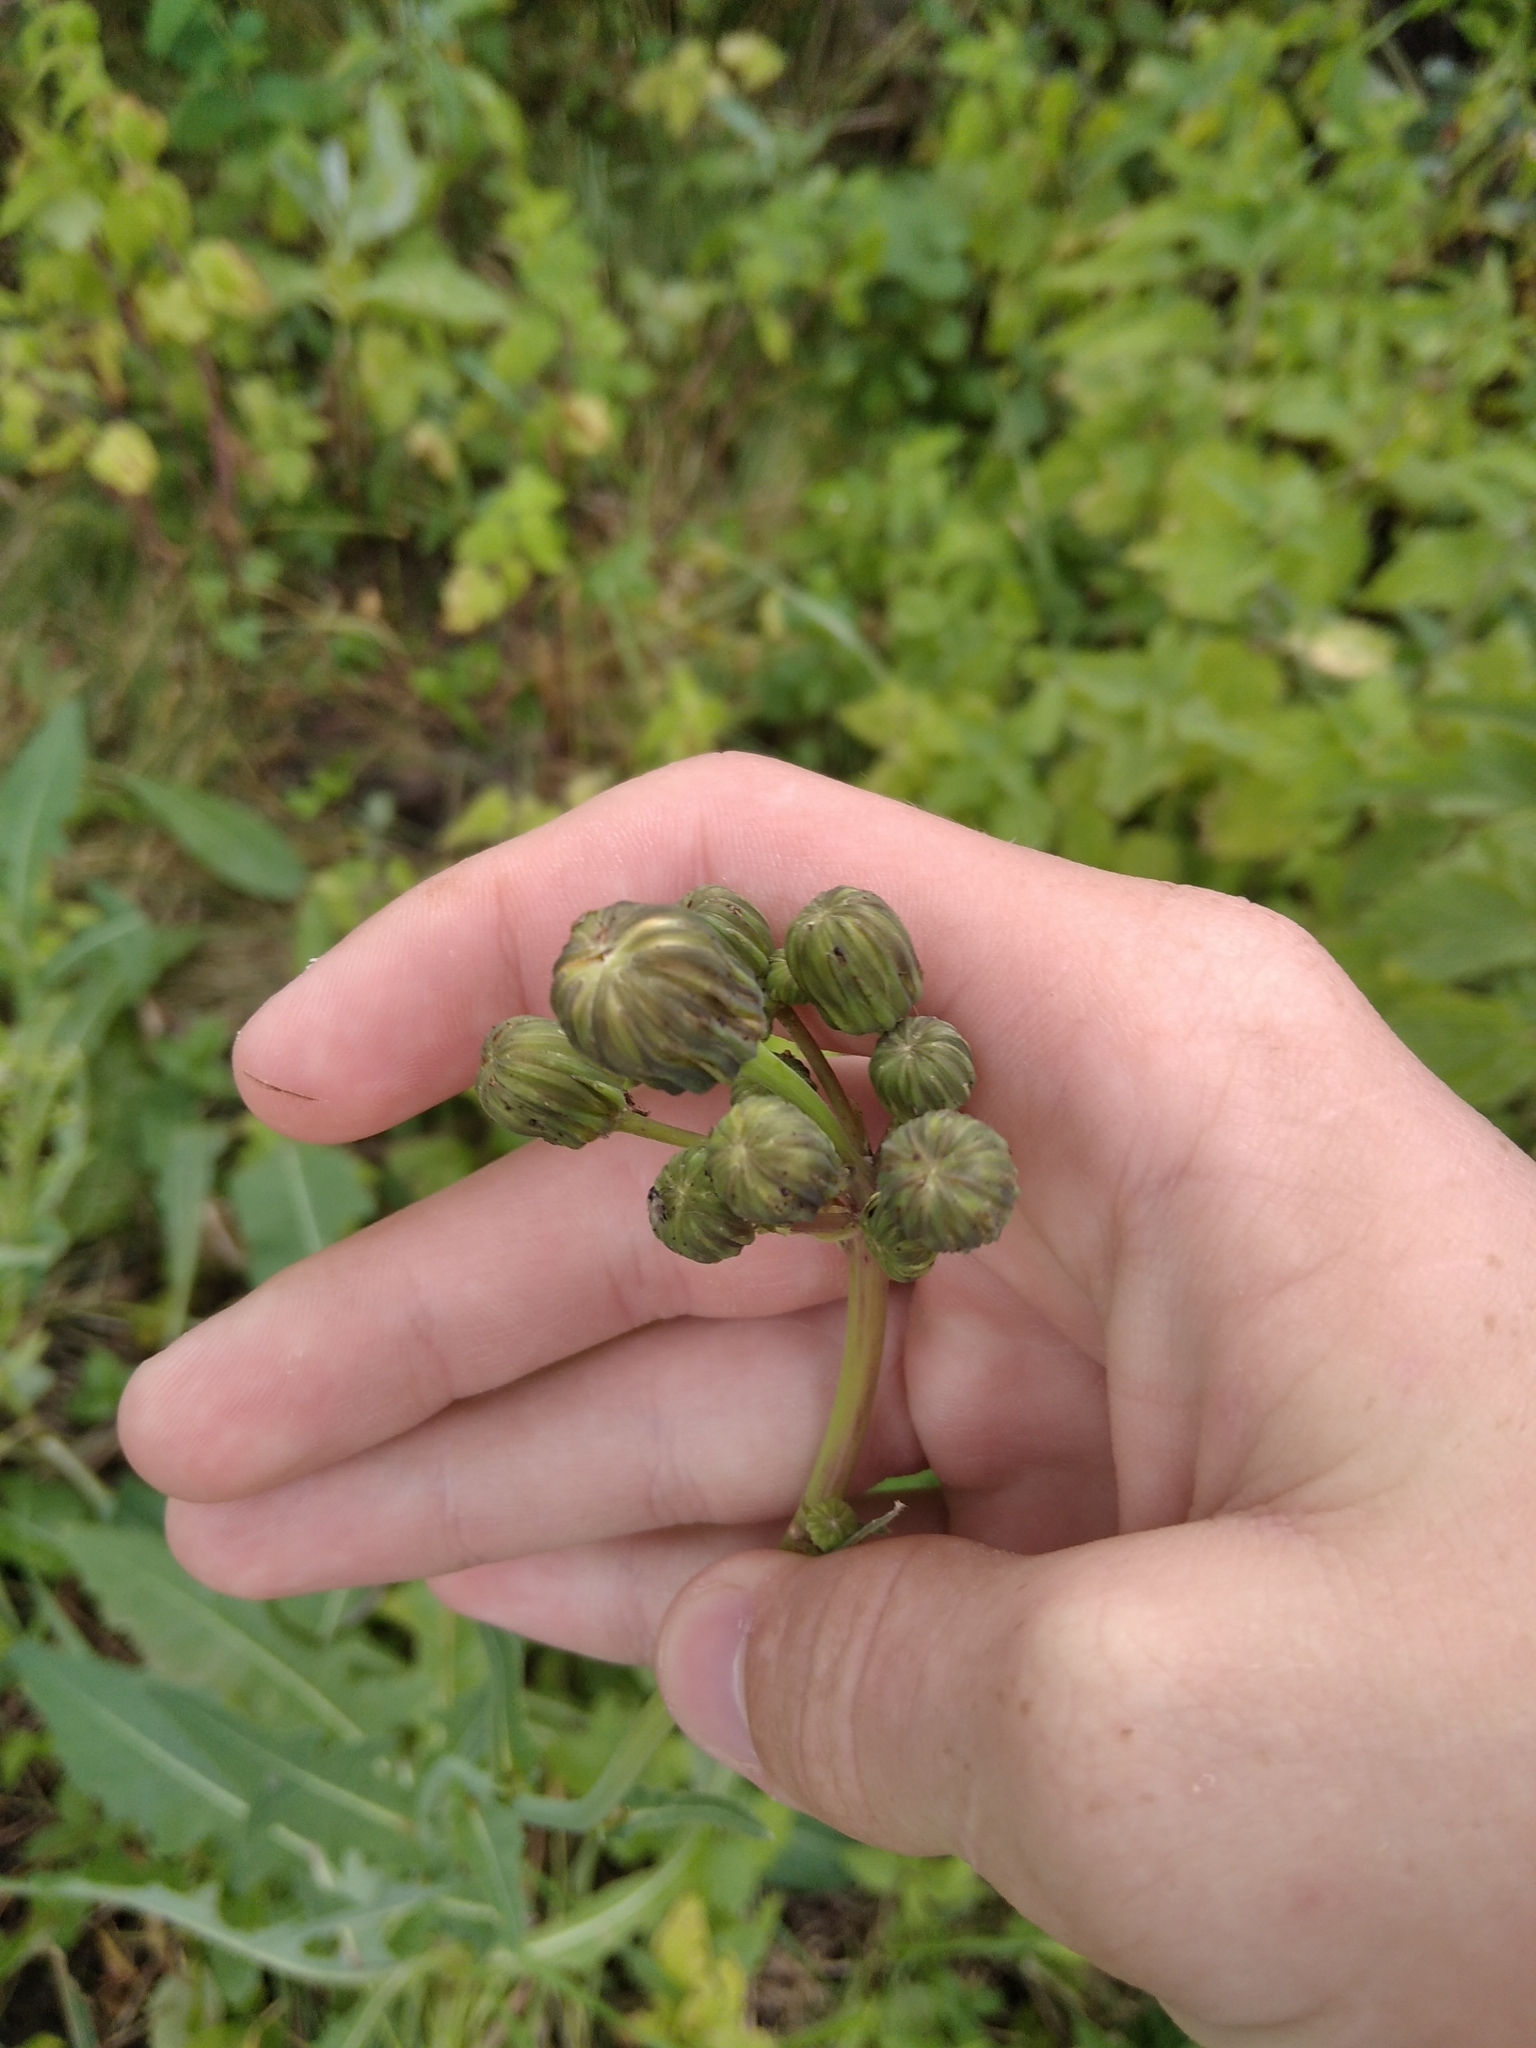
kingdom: Plantae
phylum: Tracheophyta
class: Magnoliopsida
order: Asterales
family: Asteraceae
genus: Sonchus
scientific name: Sonchus arvensis
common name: Perennial sow-thistle
